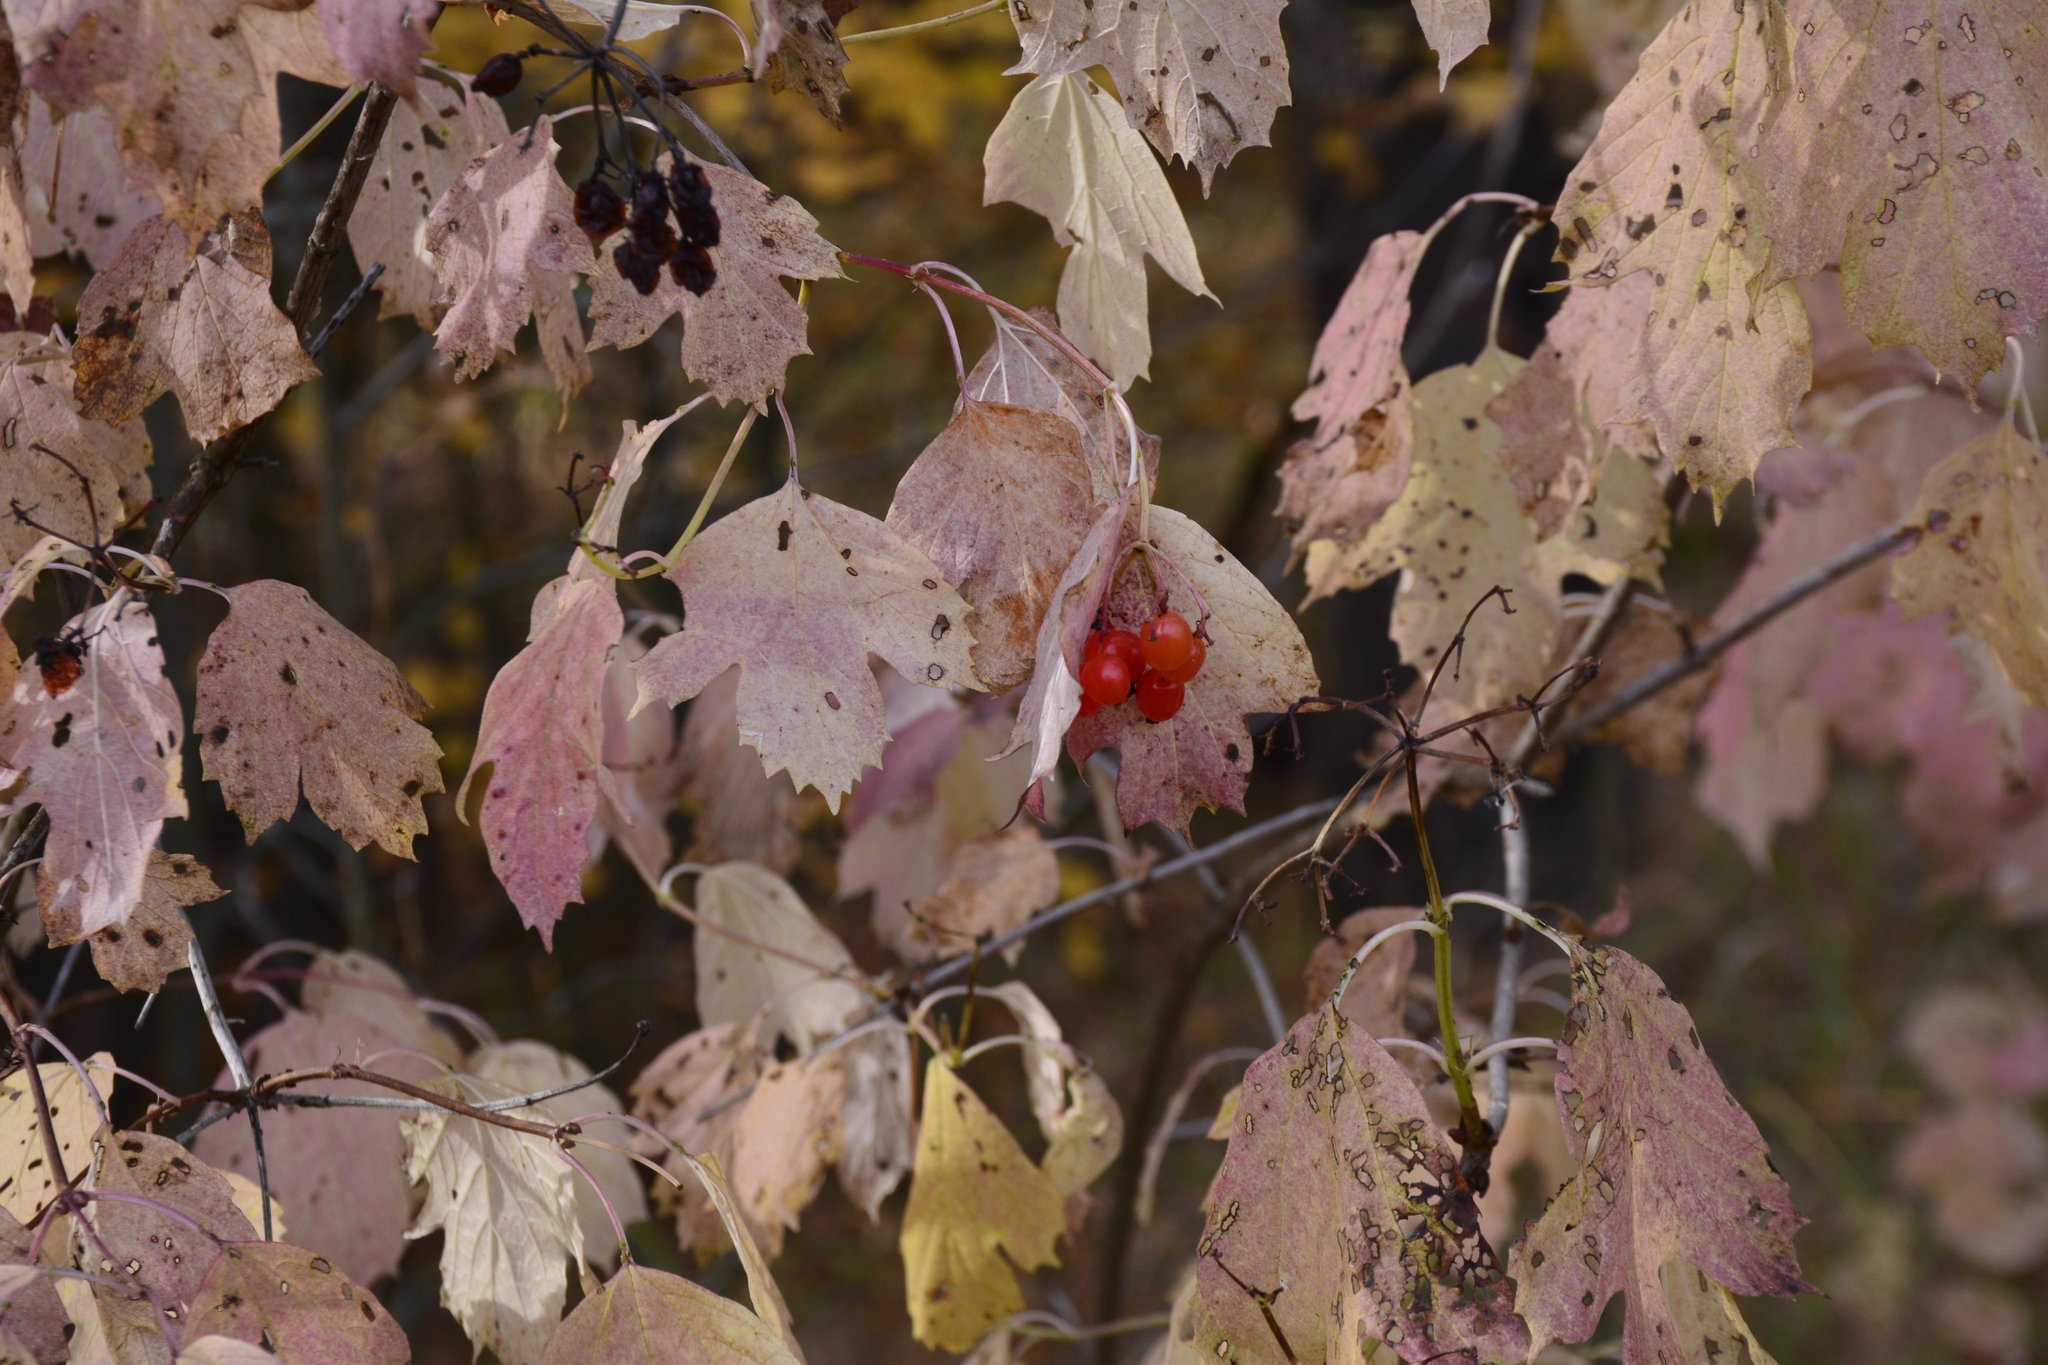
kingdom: Plantae
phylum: Tracheophyta
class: Magnoliopsida
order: Dipsacales
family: Viburnaceae
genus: Viburnum
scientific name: Viburnum opulus
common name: Guelder-rose
